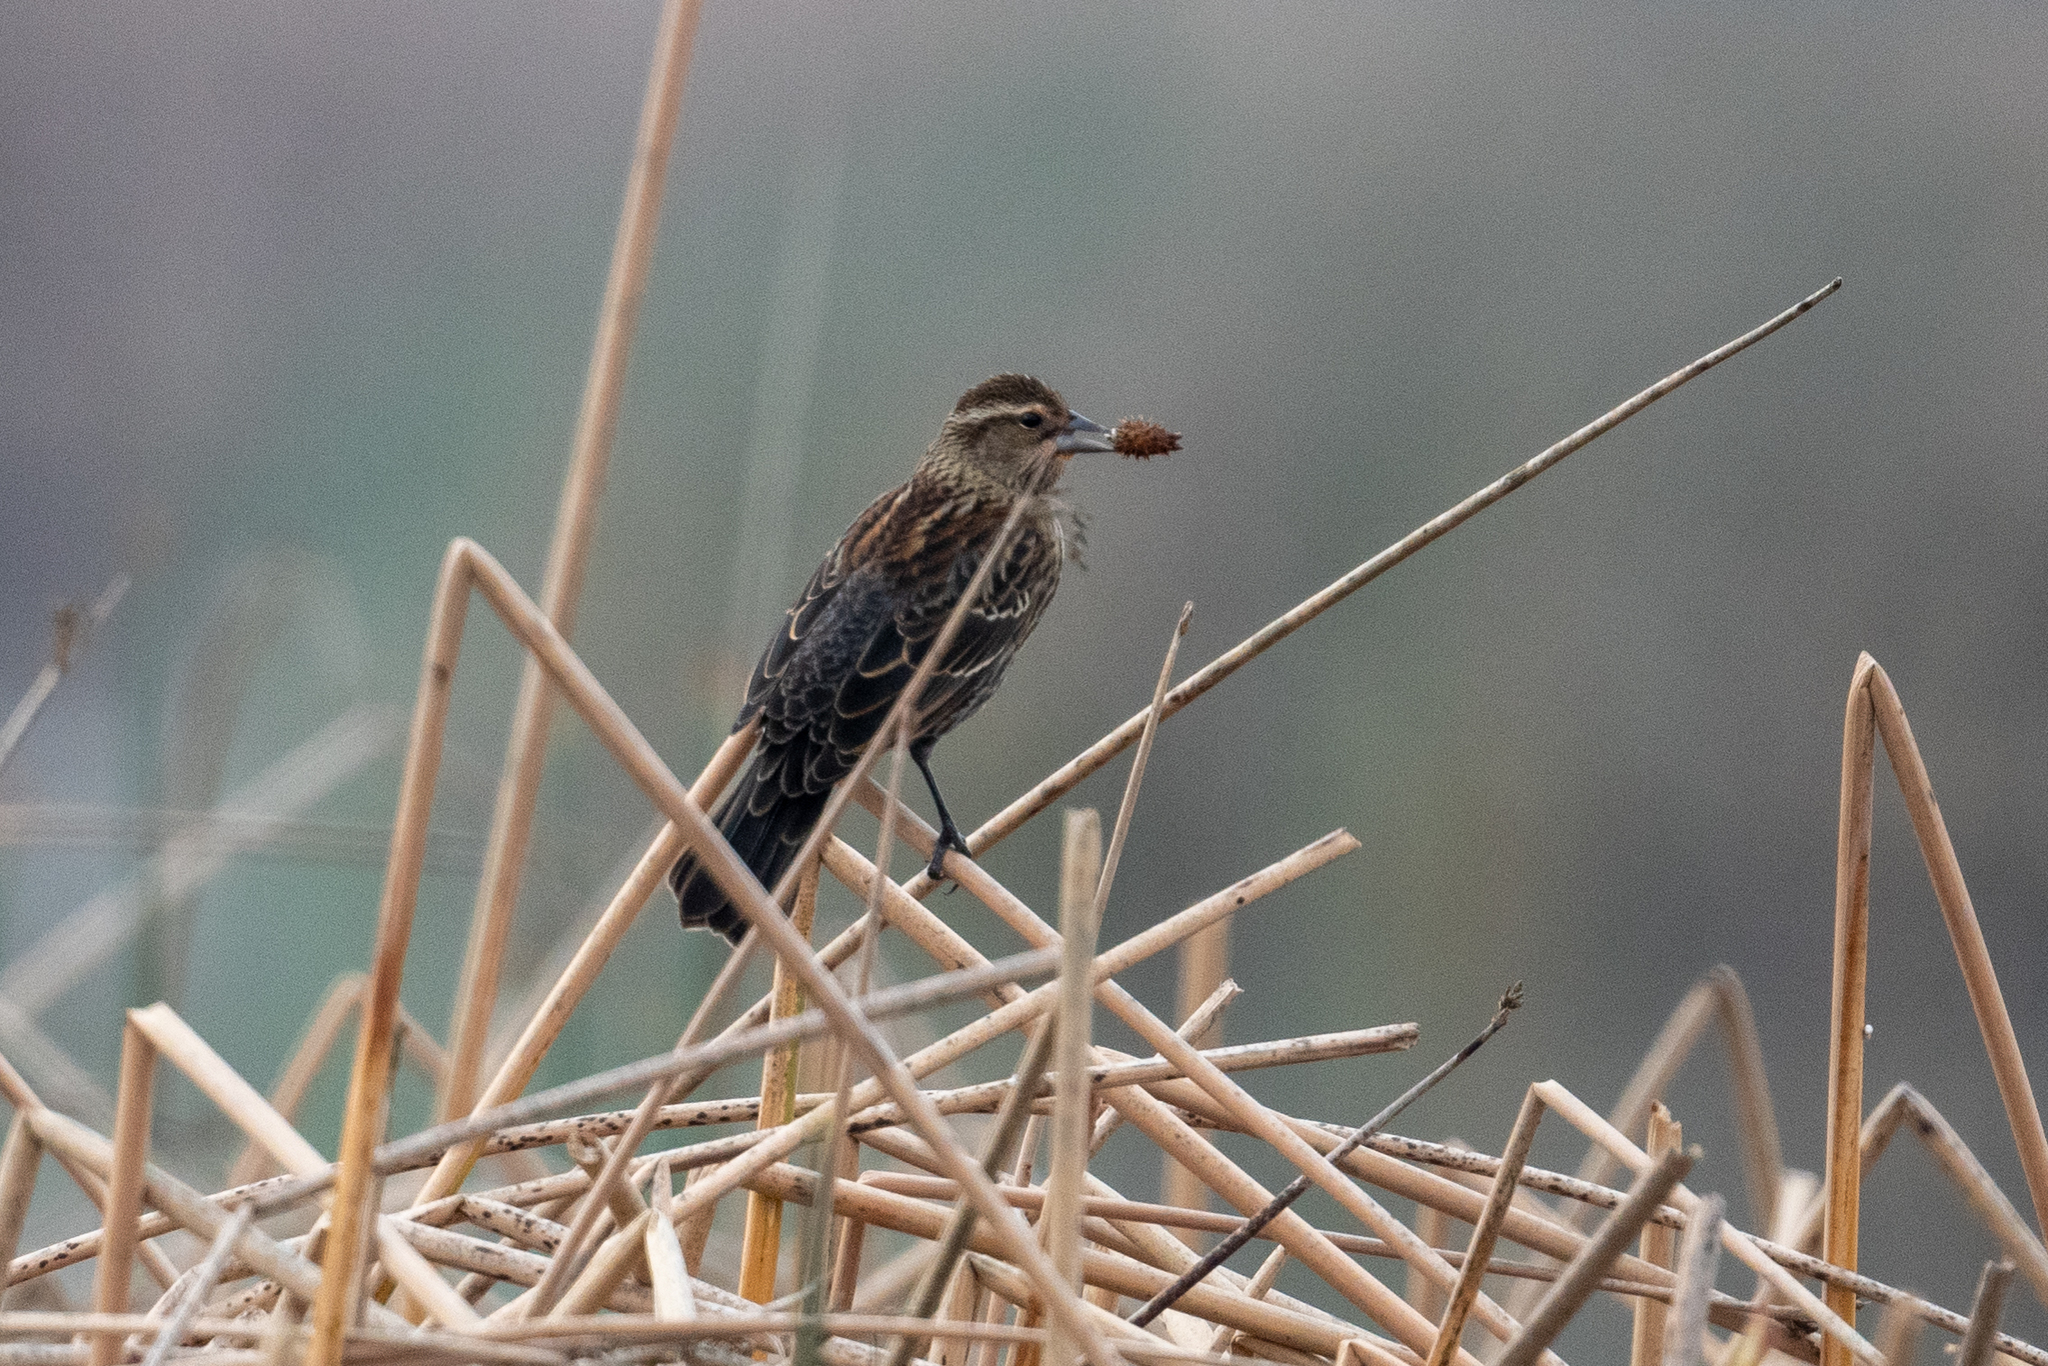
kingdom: Animalia
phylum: Chordata
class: Aves
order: Passeriformes
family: Icteridae
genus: Agelaius
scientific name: Agelaius phoeniceus
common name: Red-winged blackbird
